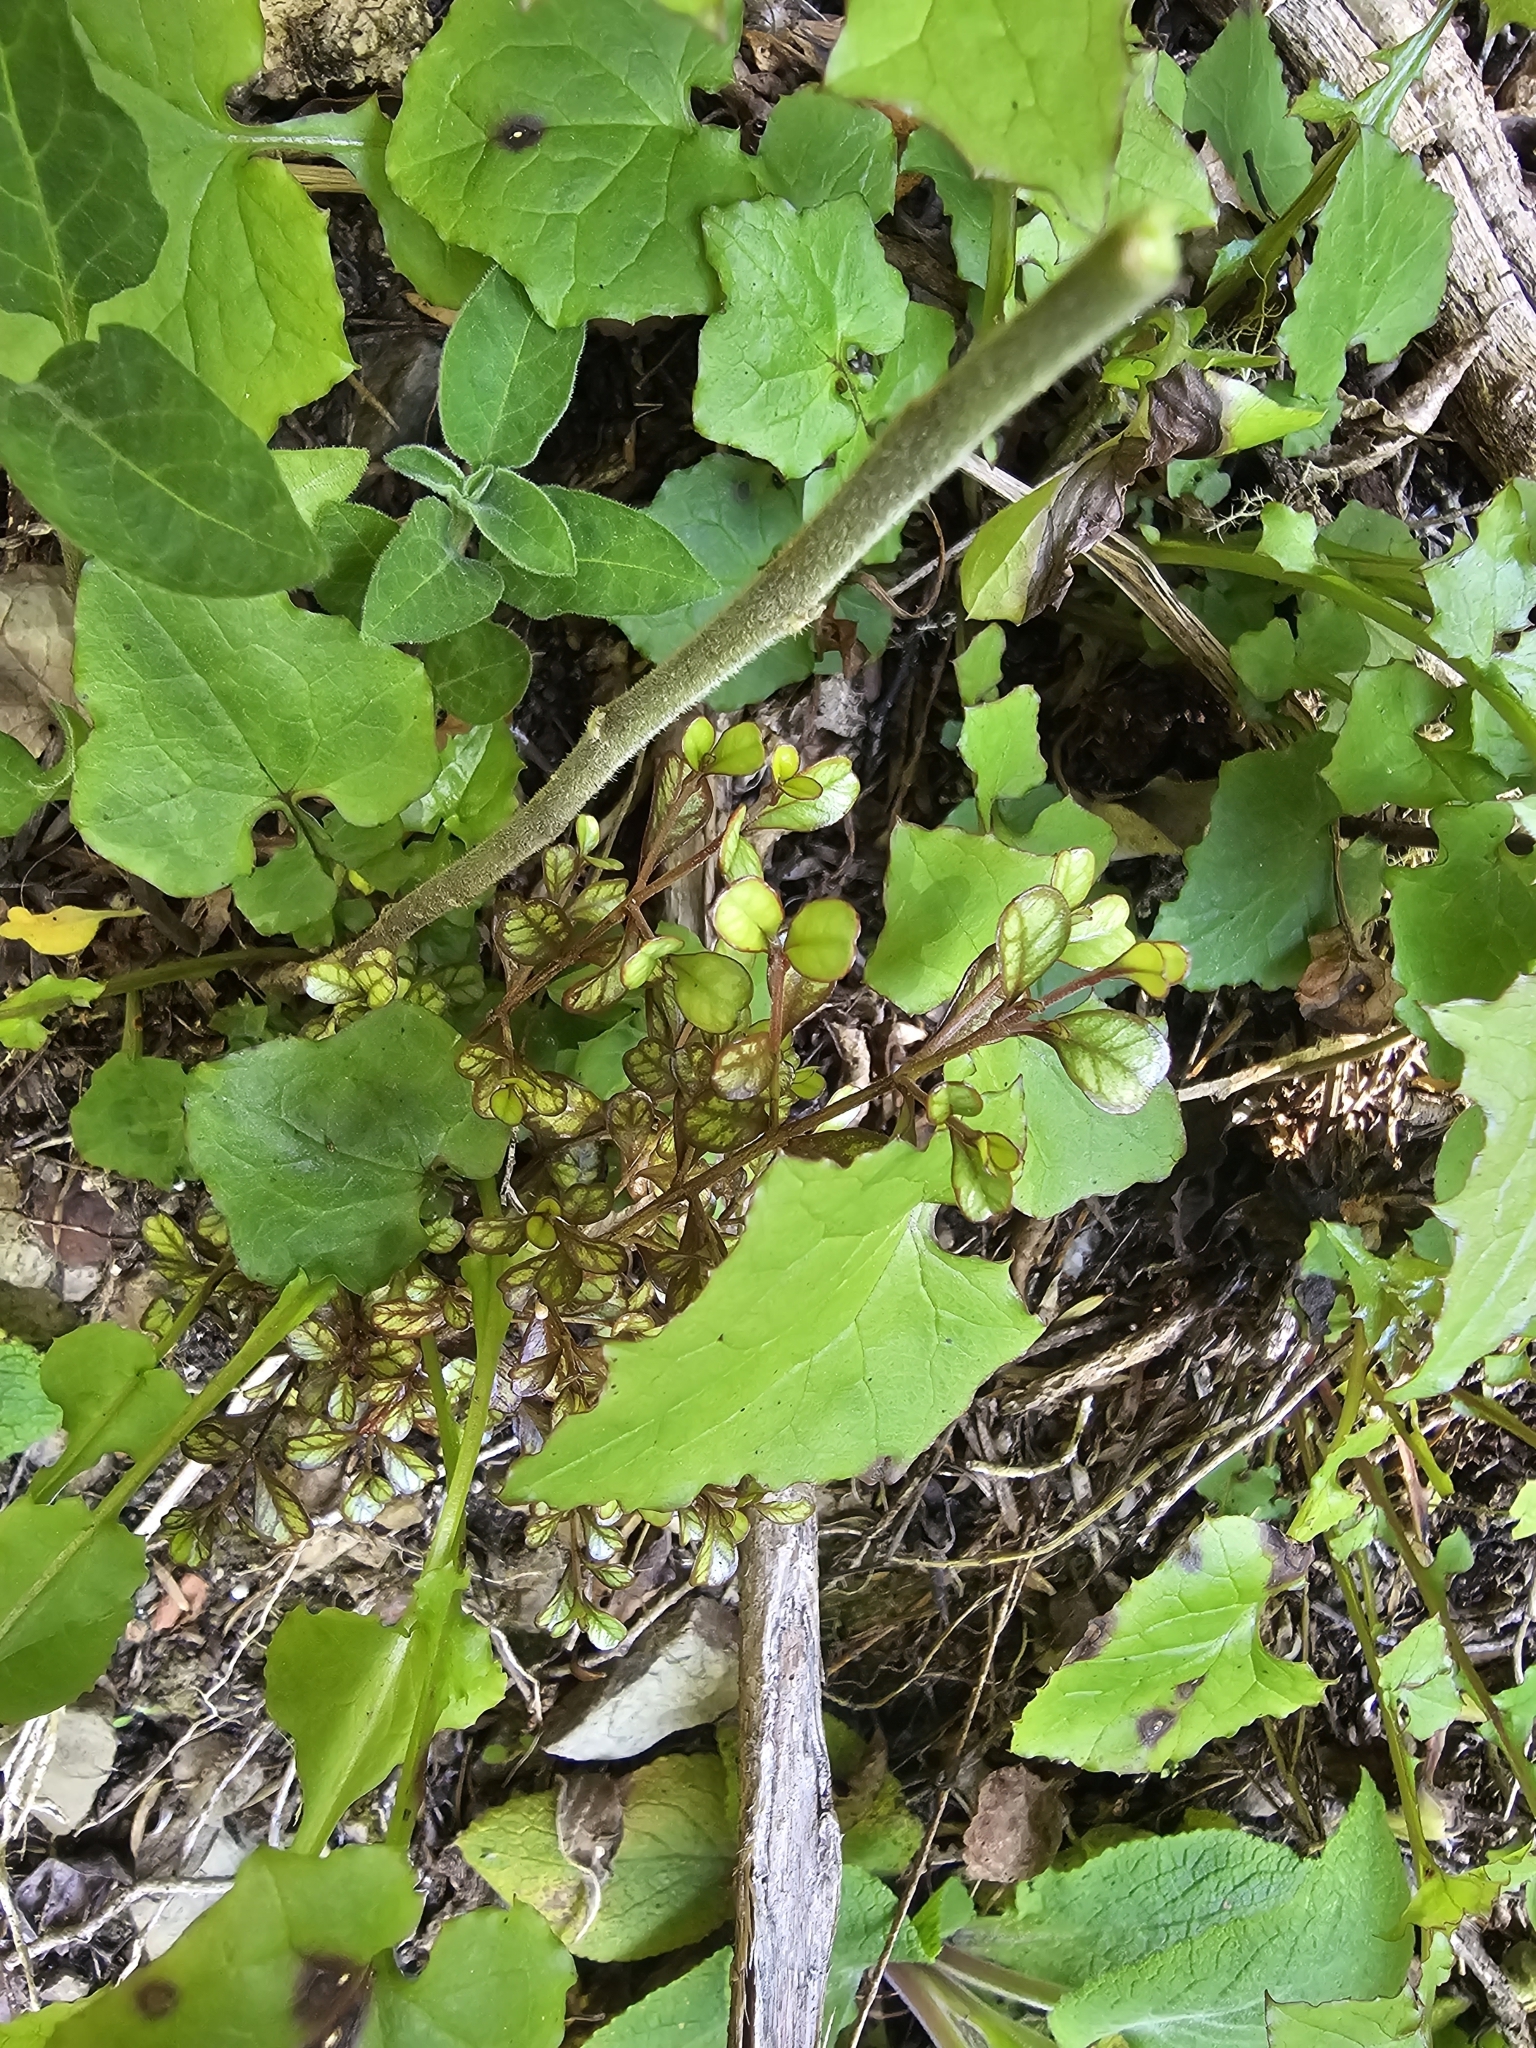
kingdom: Plantae
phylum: Tracheophyta
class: Magnoliopsida
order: Myrtales
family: Myrtaceae
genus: Lophomyrtus
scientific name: Lophomyrtus obcordata
